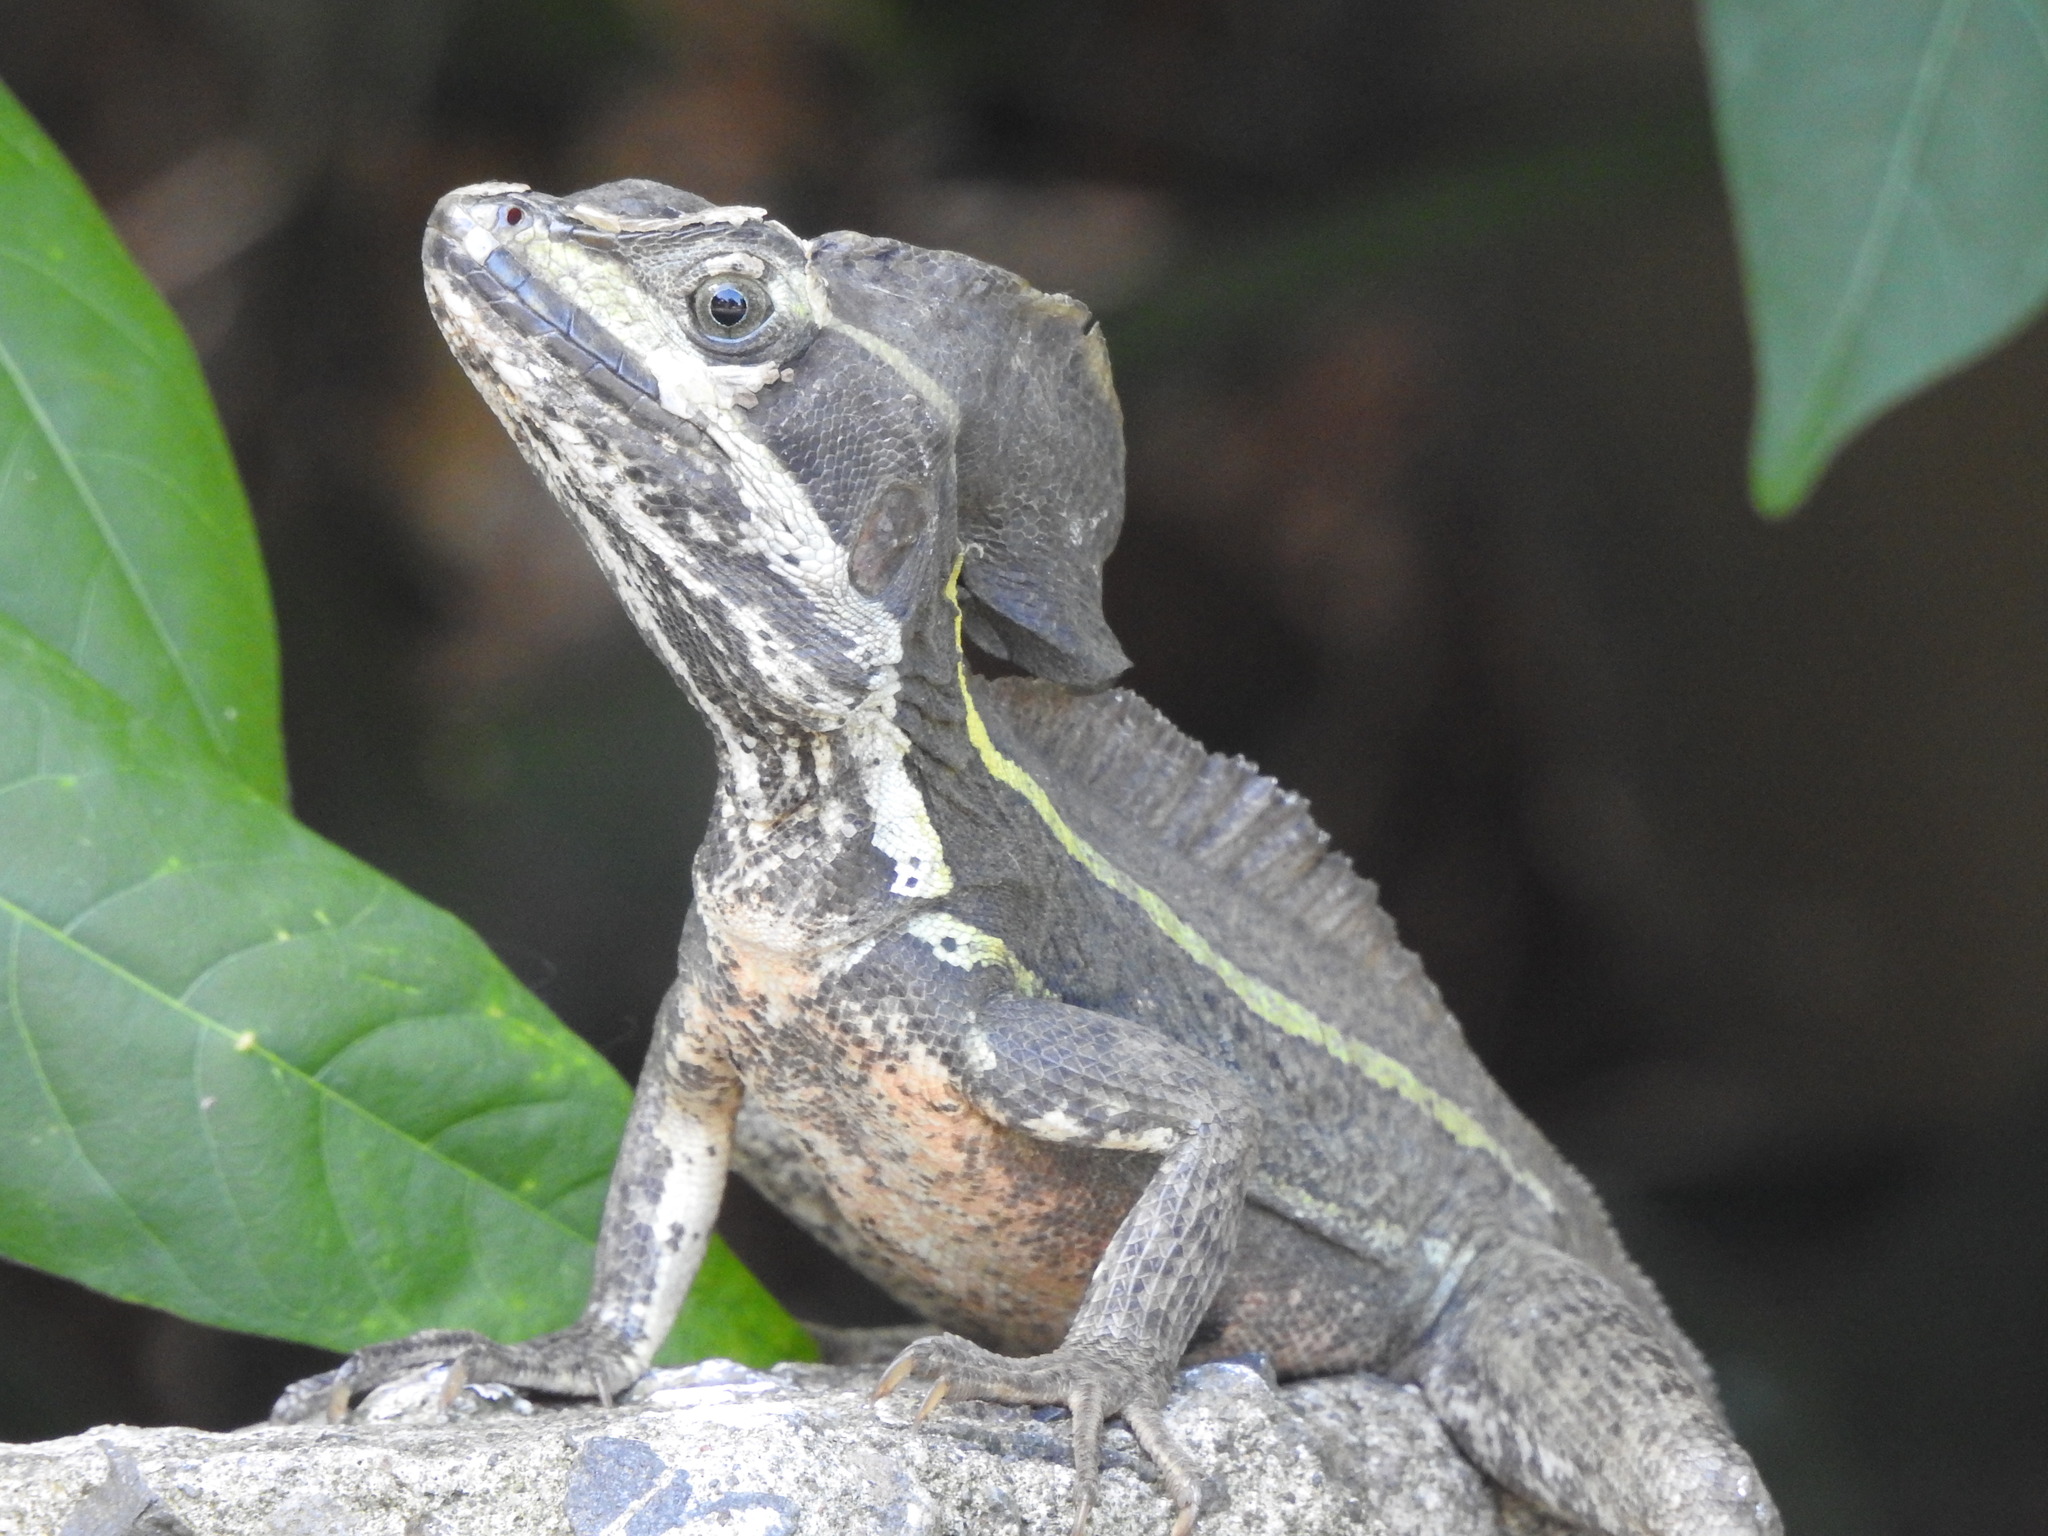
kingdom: Animalia
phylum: Chordata
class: Squamata
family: Corytophanidae
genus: Basiliscus
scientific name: Basiliscus vittatus
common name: Brown basilisk
